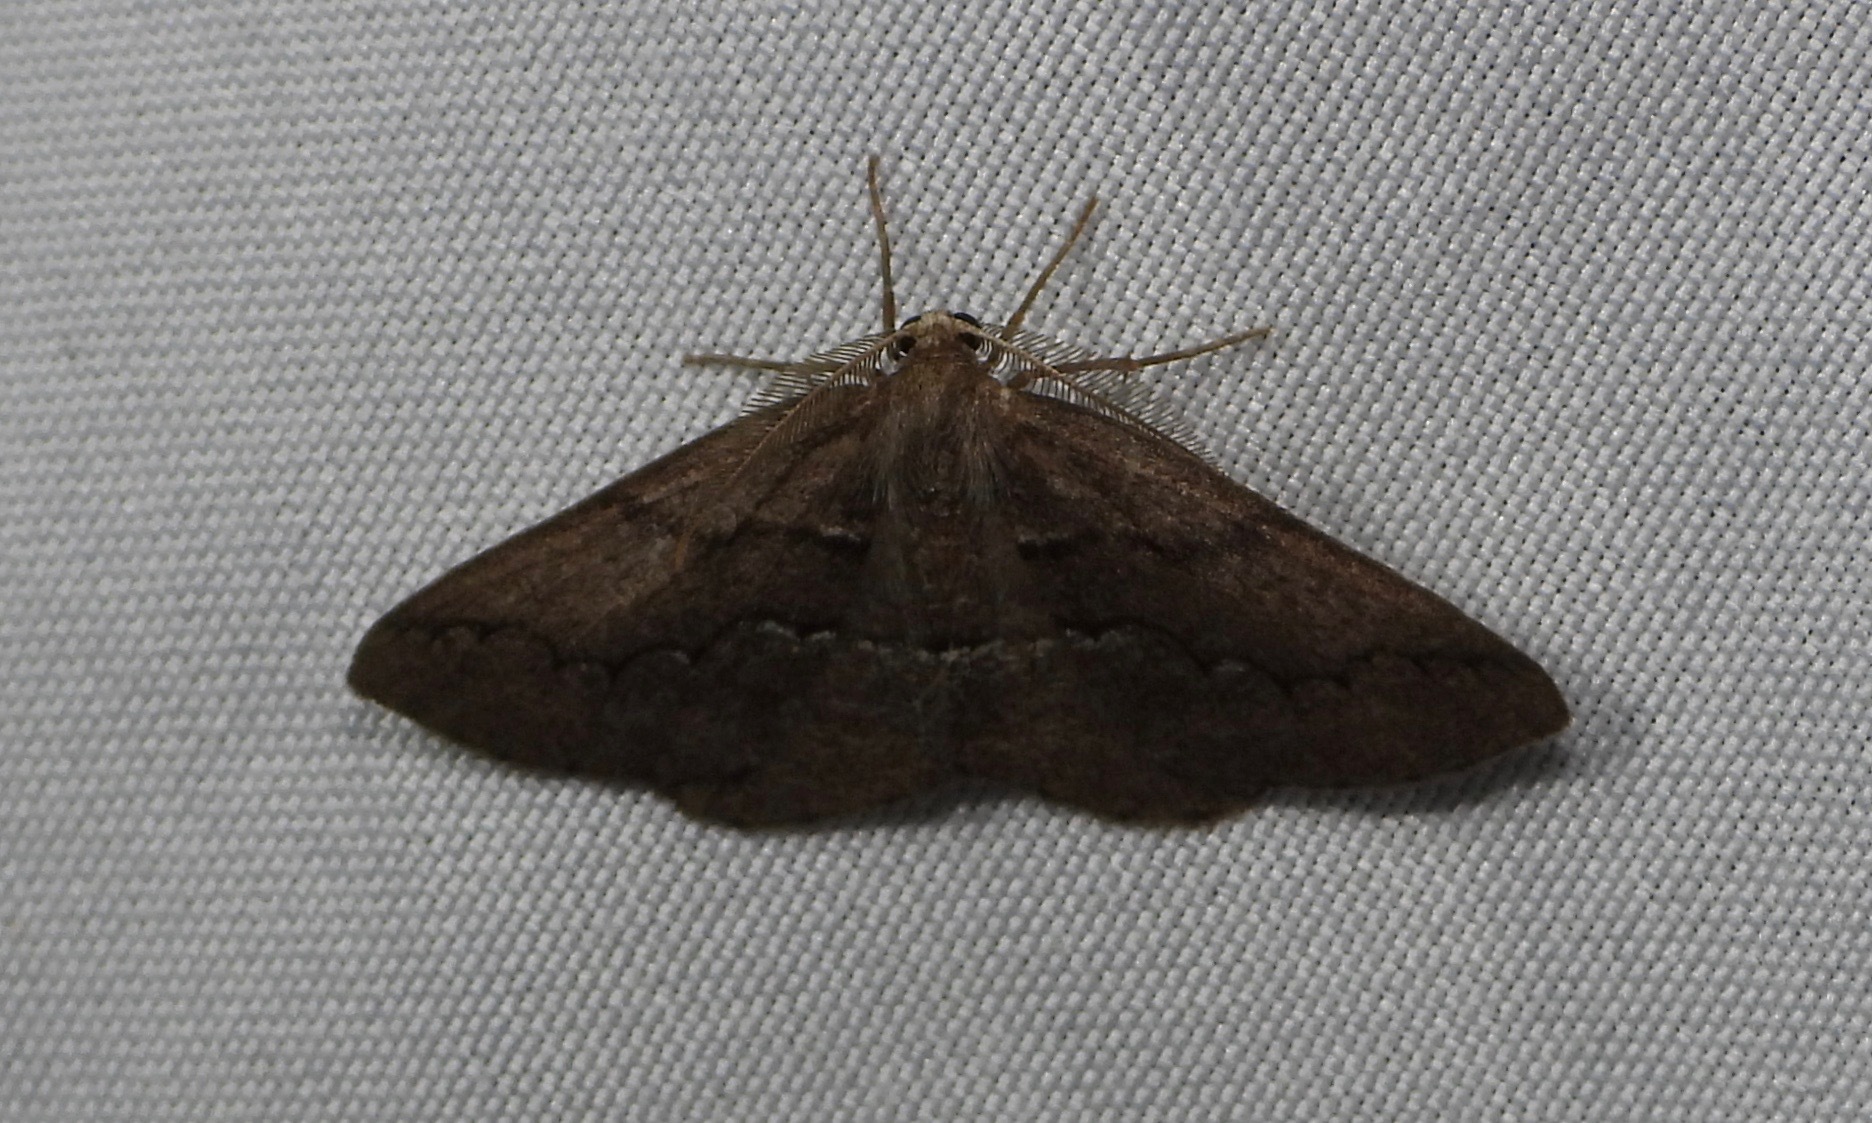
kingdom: Animalia
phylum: Arthropoda
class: Insecta
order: Lepidoptera
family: Geometridae
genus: Nephodia
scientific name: Nephodia plautilla
